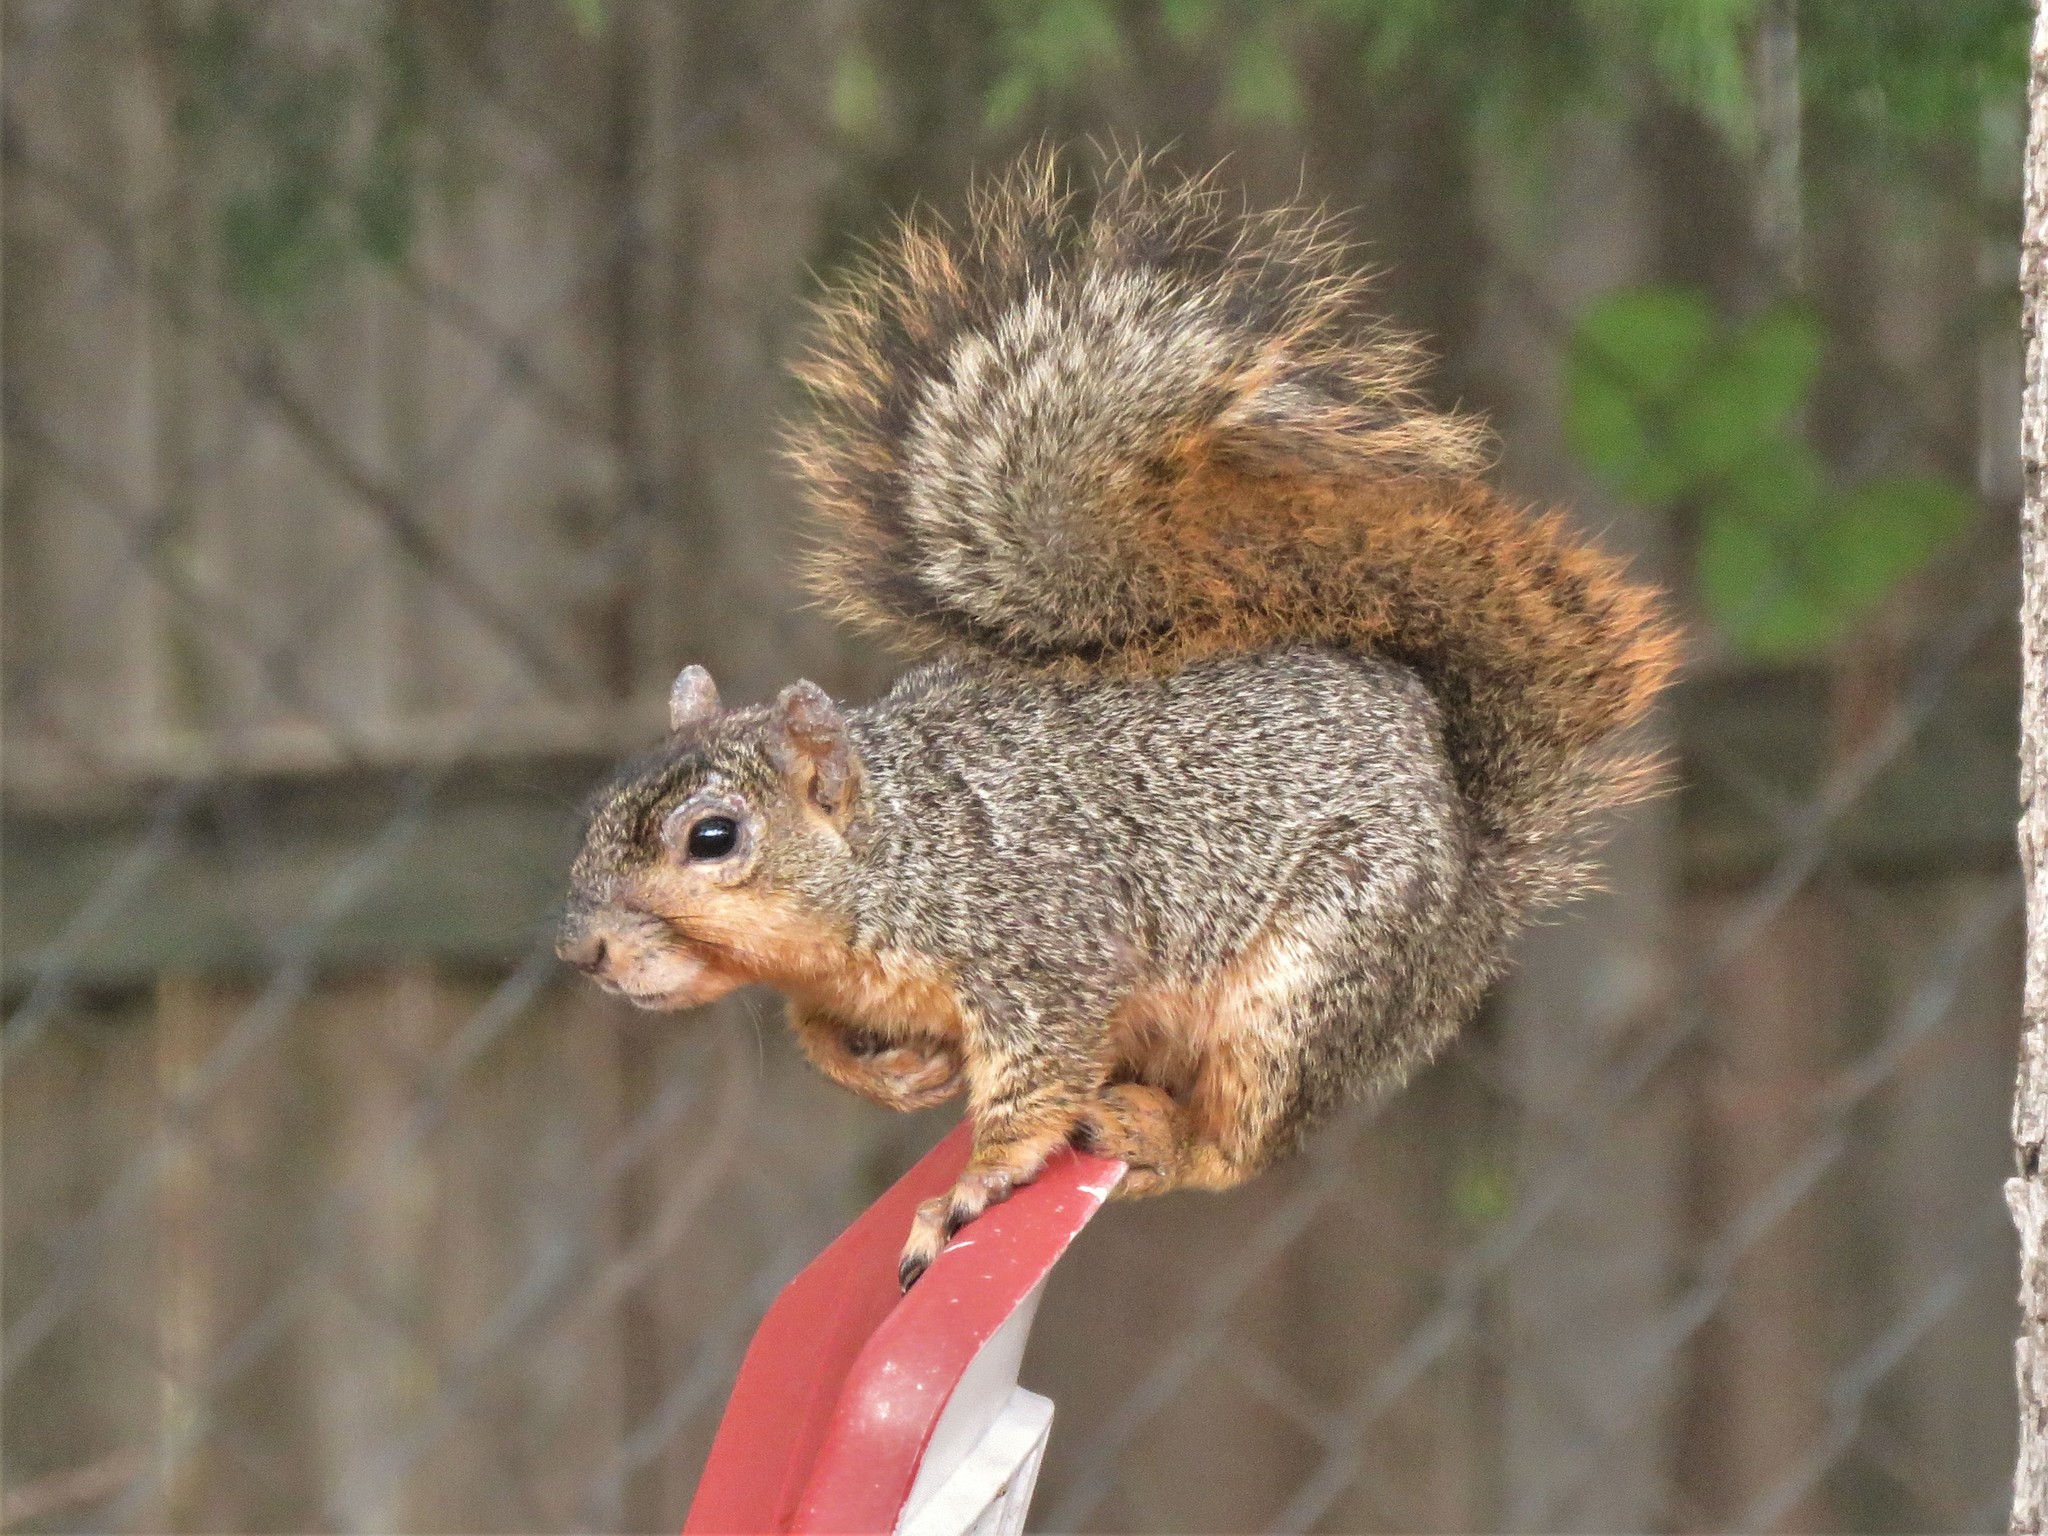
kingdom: Animalia
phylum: Chordata
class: Mammalia
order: Rodentia
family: Sciuridae
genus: Sciurus
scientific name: Sciurus niger
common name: Fox squirrel
